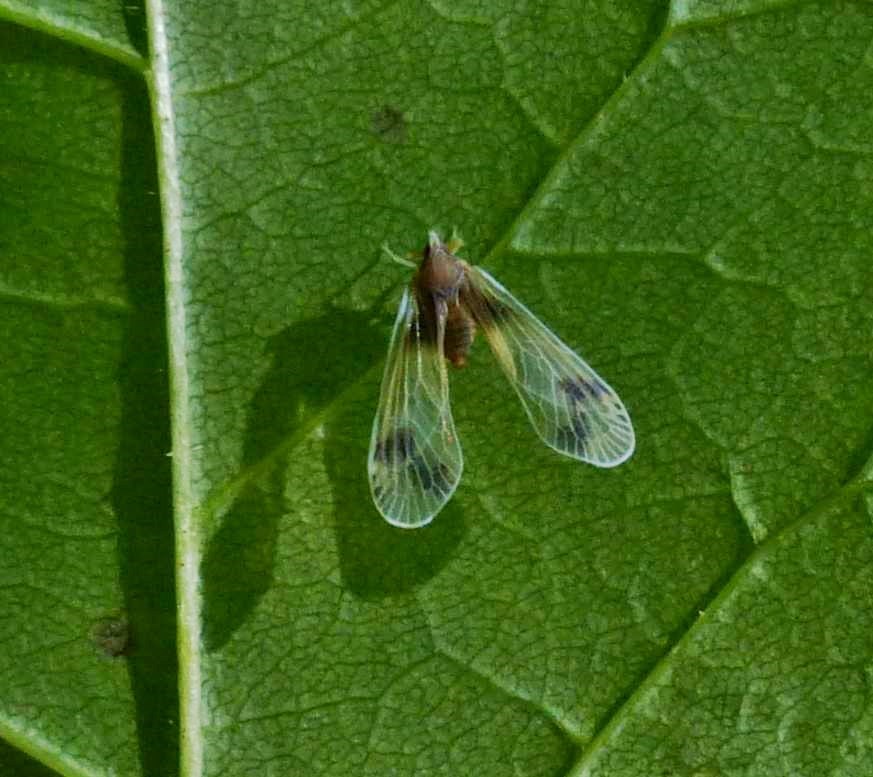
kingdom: Animalia
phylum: Arthropoda
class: Insecta
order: Hemiptera
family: Derbidae
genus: Anotia
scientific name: Anotia uhleri
